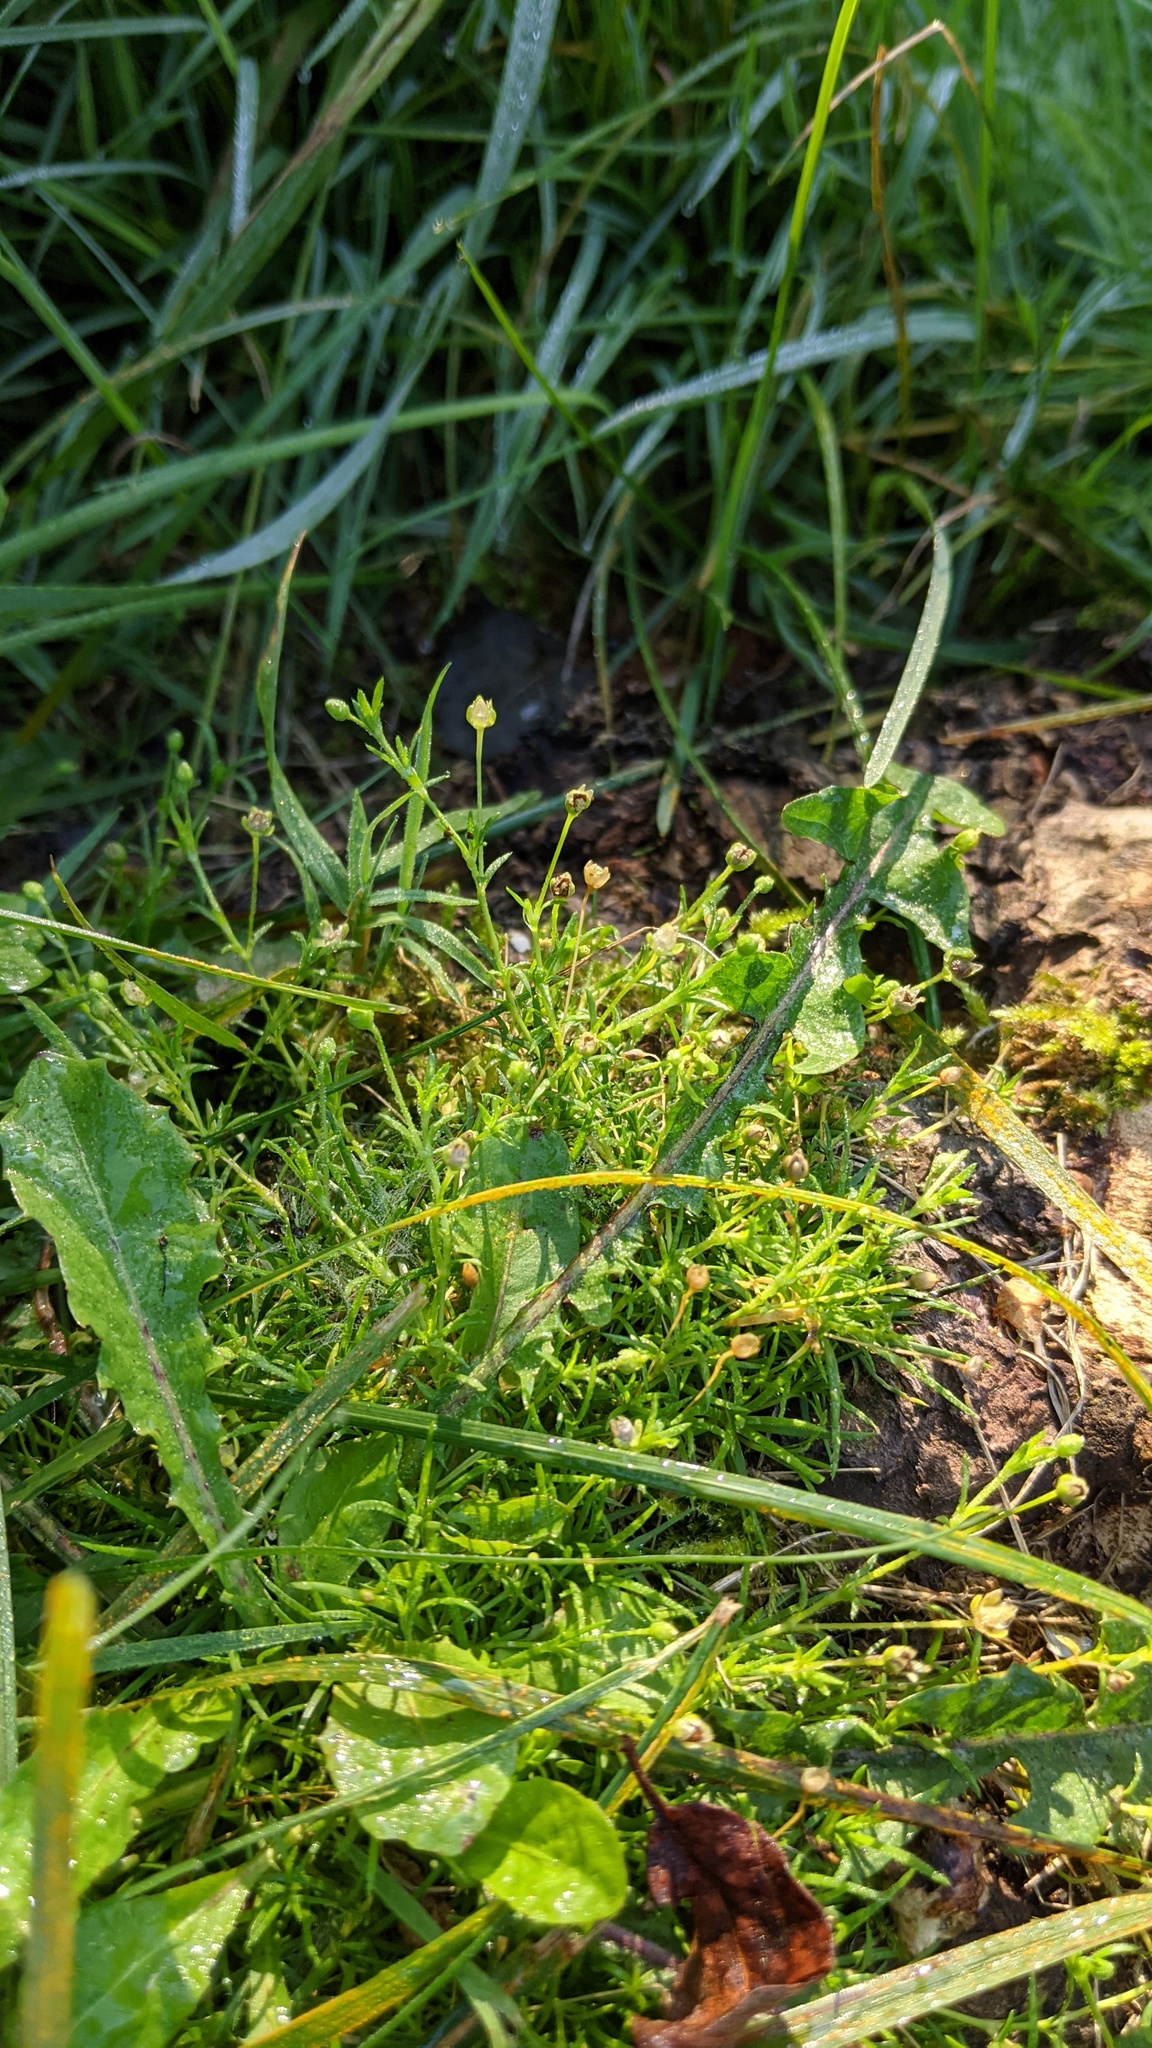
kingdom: Plantae
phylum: Tracheophyta
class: Magnoliopsida
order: Caryophyllales
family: Caryophyllaceae
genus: Sagina
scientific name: Sagina procumbens
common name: Procumbent pearlwort
